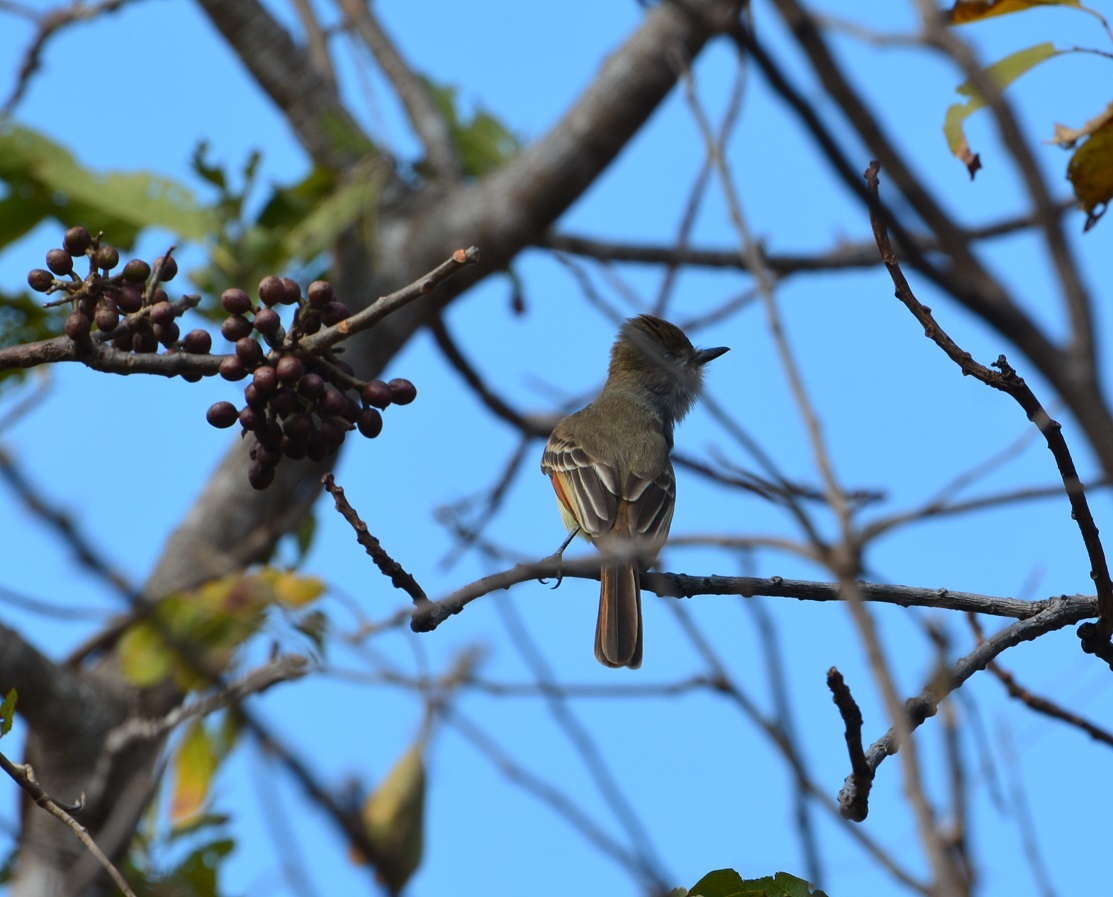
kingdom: Animalia
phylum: Chordata
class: Aves
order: Passeriformes
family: Tyrannidae
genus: Myiarchus
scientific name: Myiarchus tuberculifer
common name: Dusky-capped flycatcher
